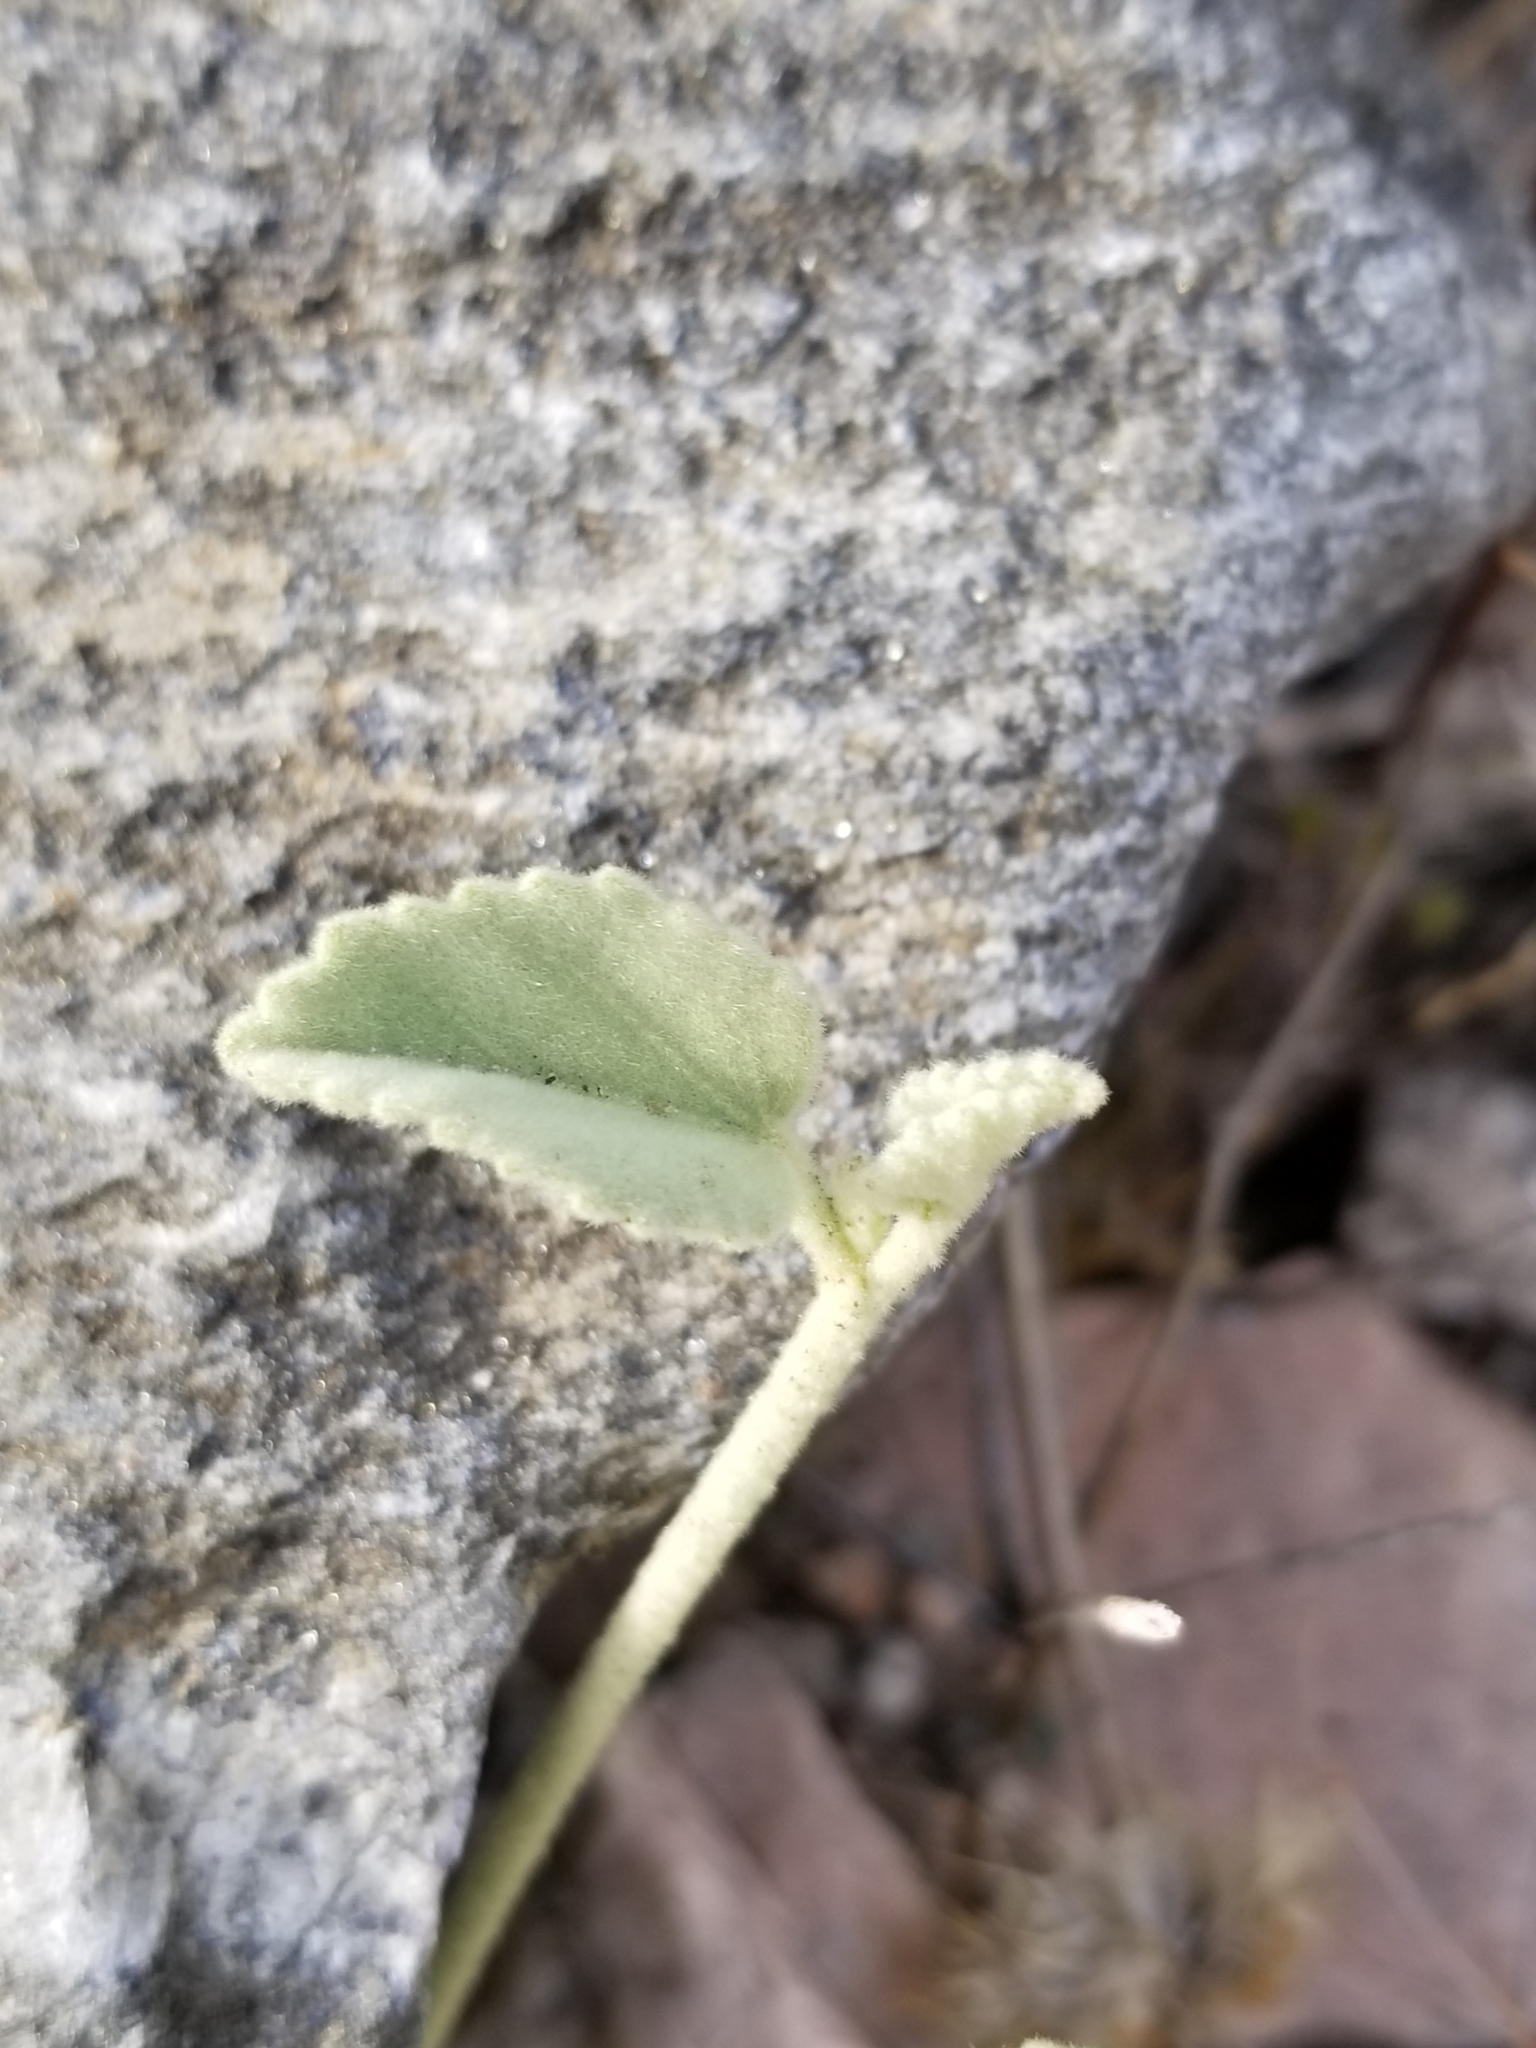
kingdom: Plantae
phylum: Tracheophyta
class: Magnoliopsida
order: Malvales
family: Malvaceae
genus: Hibiscus
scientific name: Hibiscus denudatus
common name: Paleface
